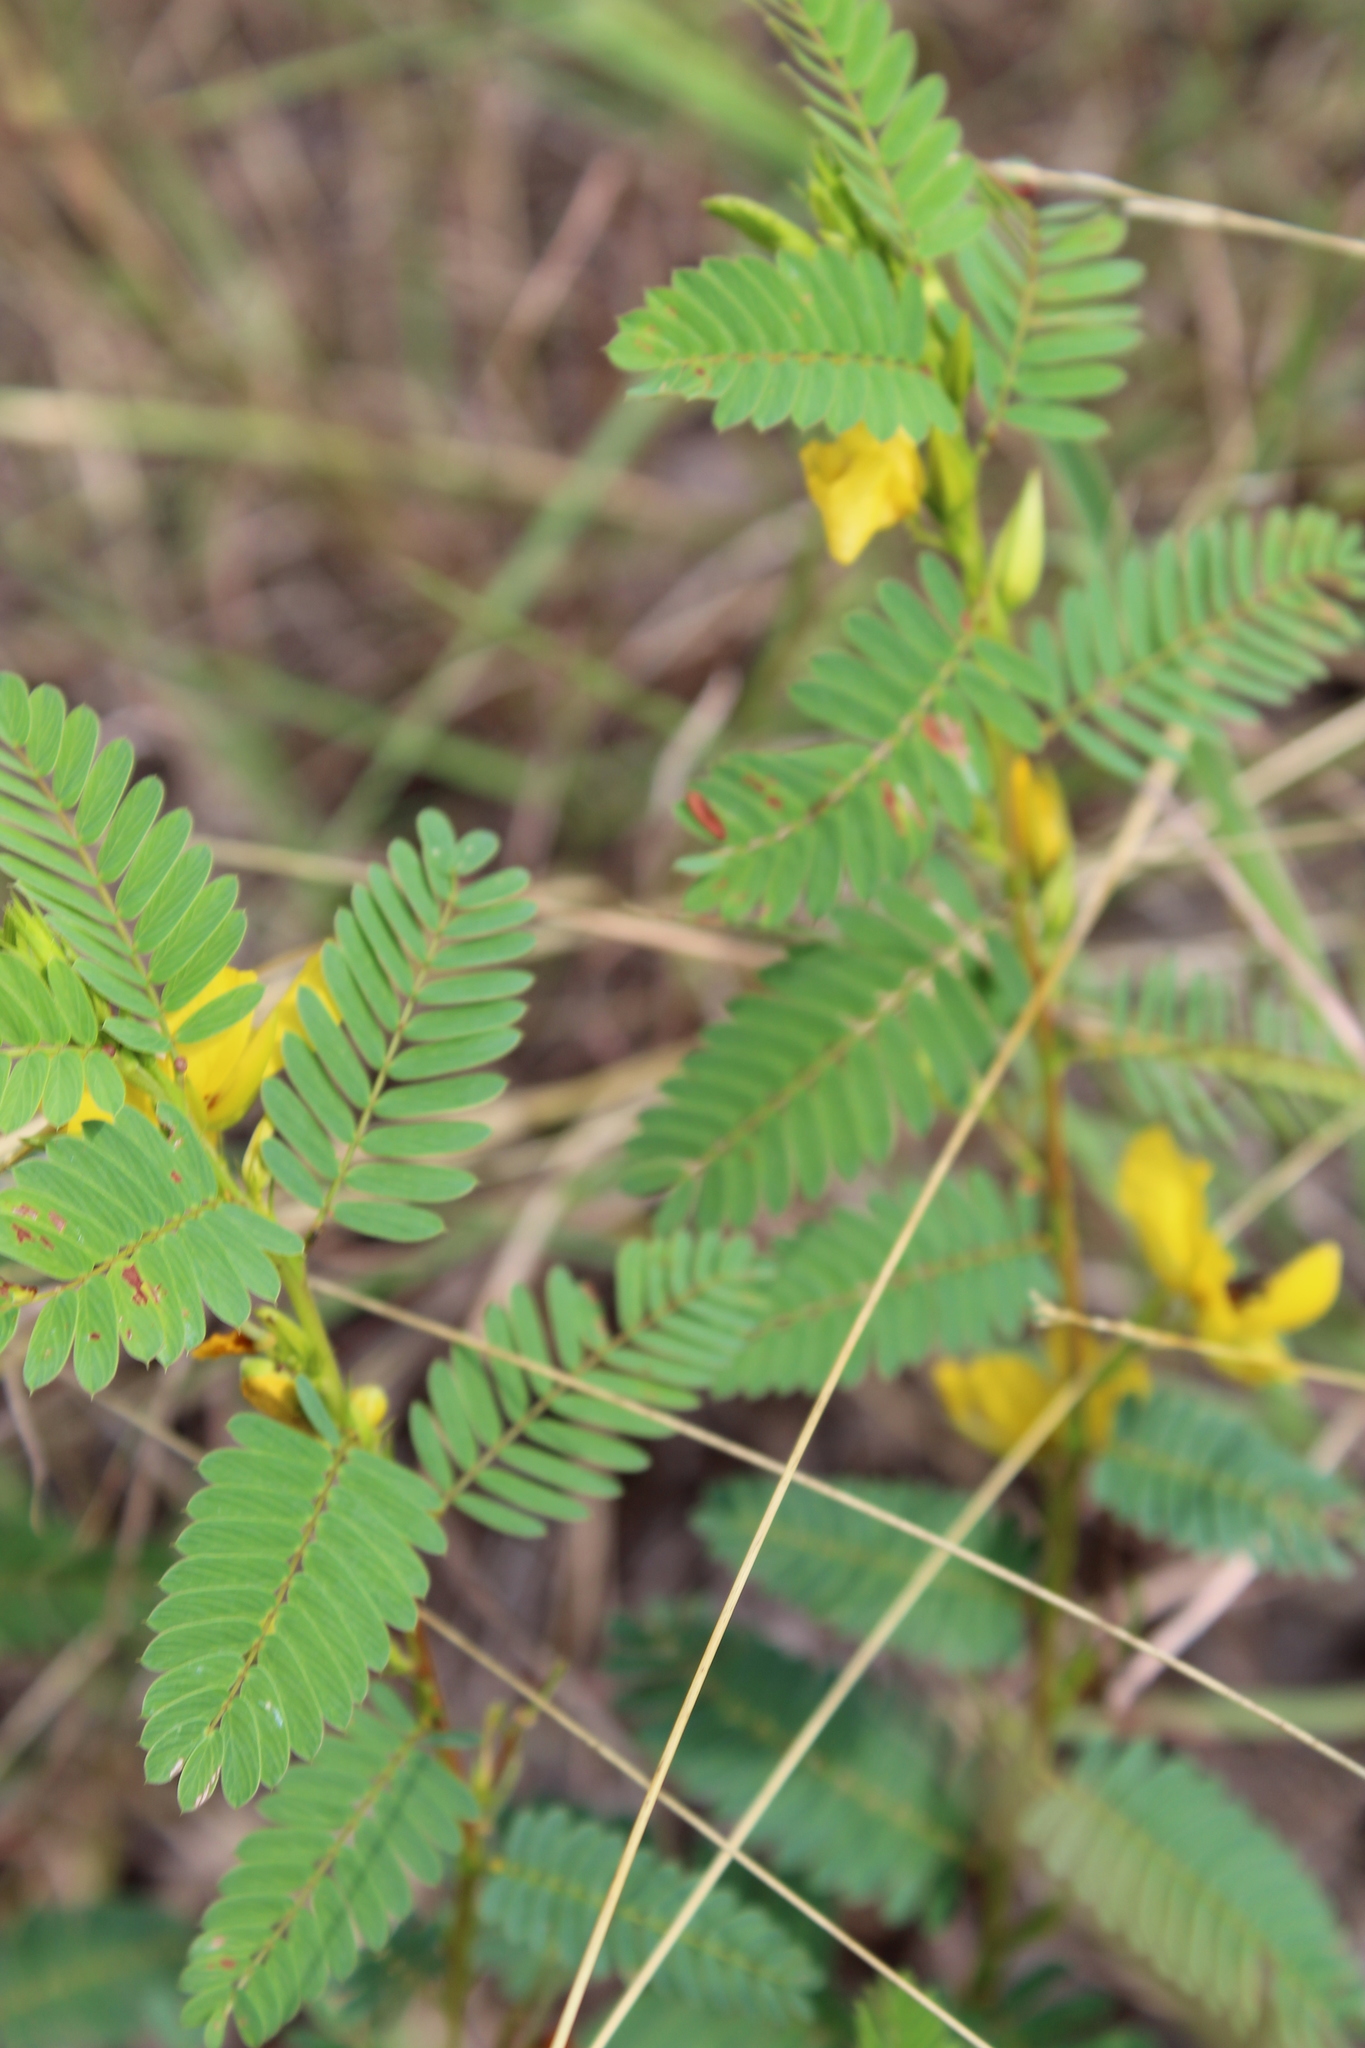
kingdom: Plantae
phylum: Tracheophyta
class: Magnoliopsida
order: Fabales
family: Fabaceae
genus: Chamaecrista
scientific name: Chamaecrista fasciculata
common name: Golden cassia
